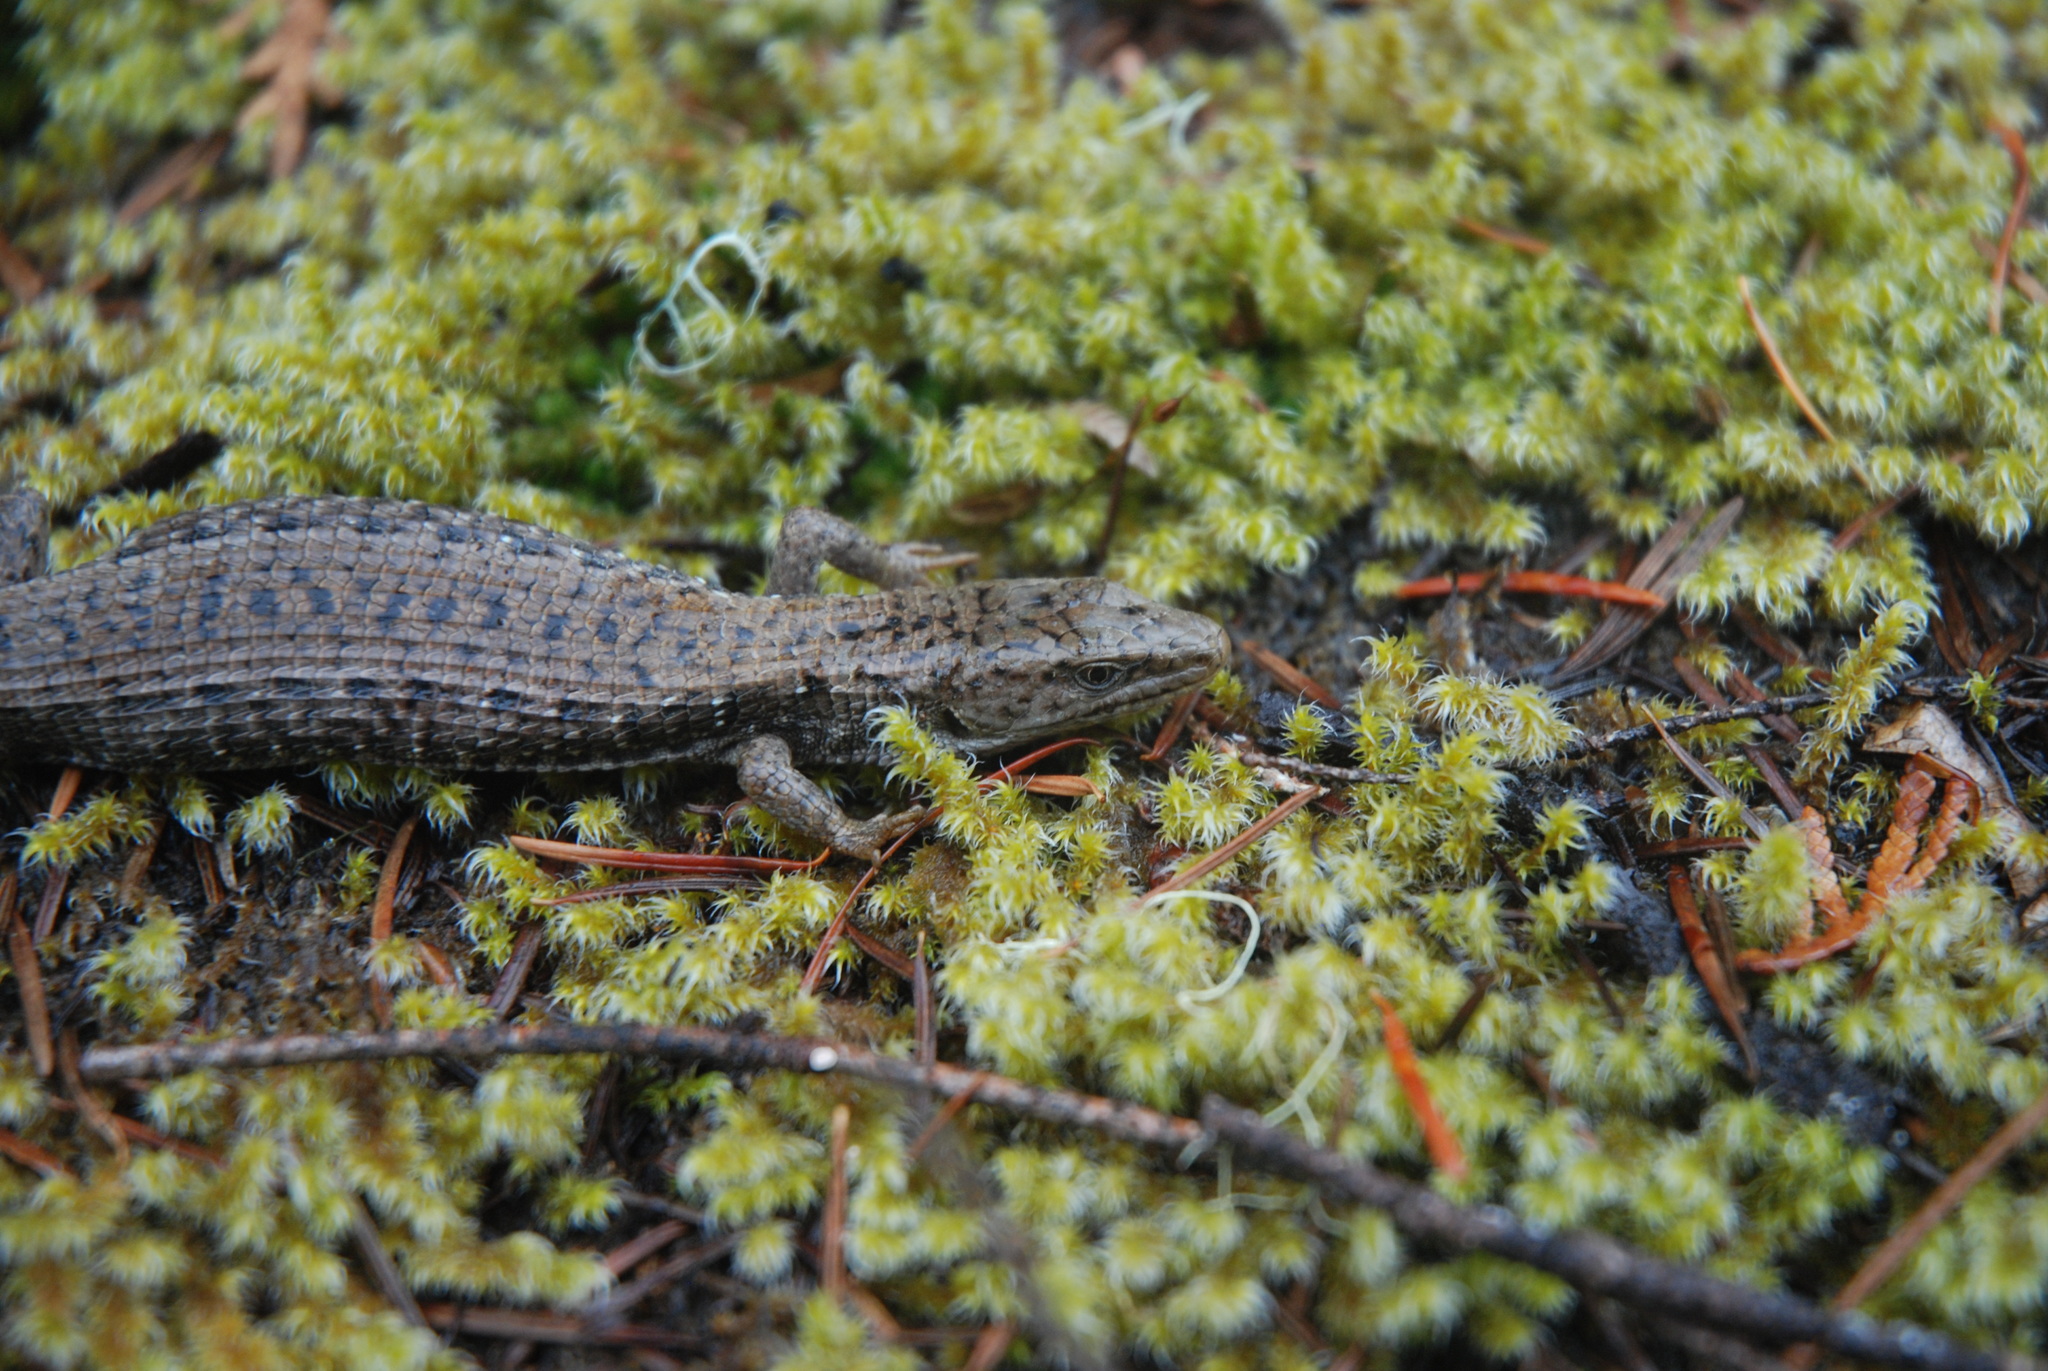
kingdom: Animalia
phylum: Chordata
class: Squamata
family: Anguidae
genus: Elgaria
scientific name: Elgaria coerulea
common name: Northern alligator lizard
